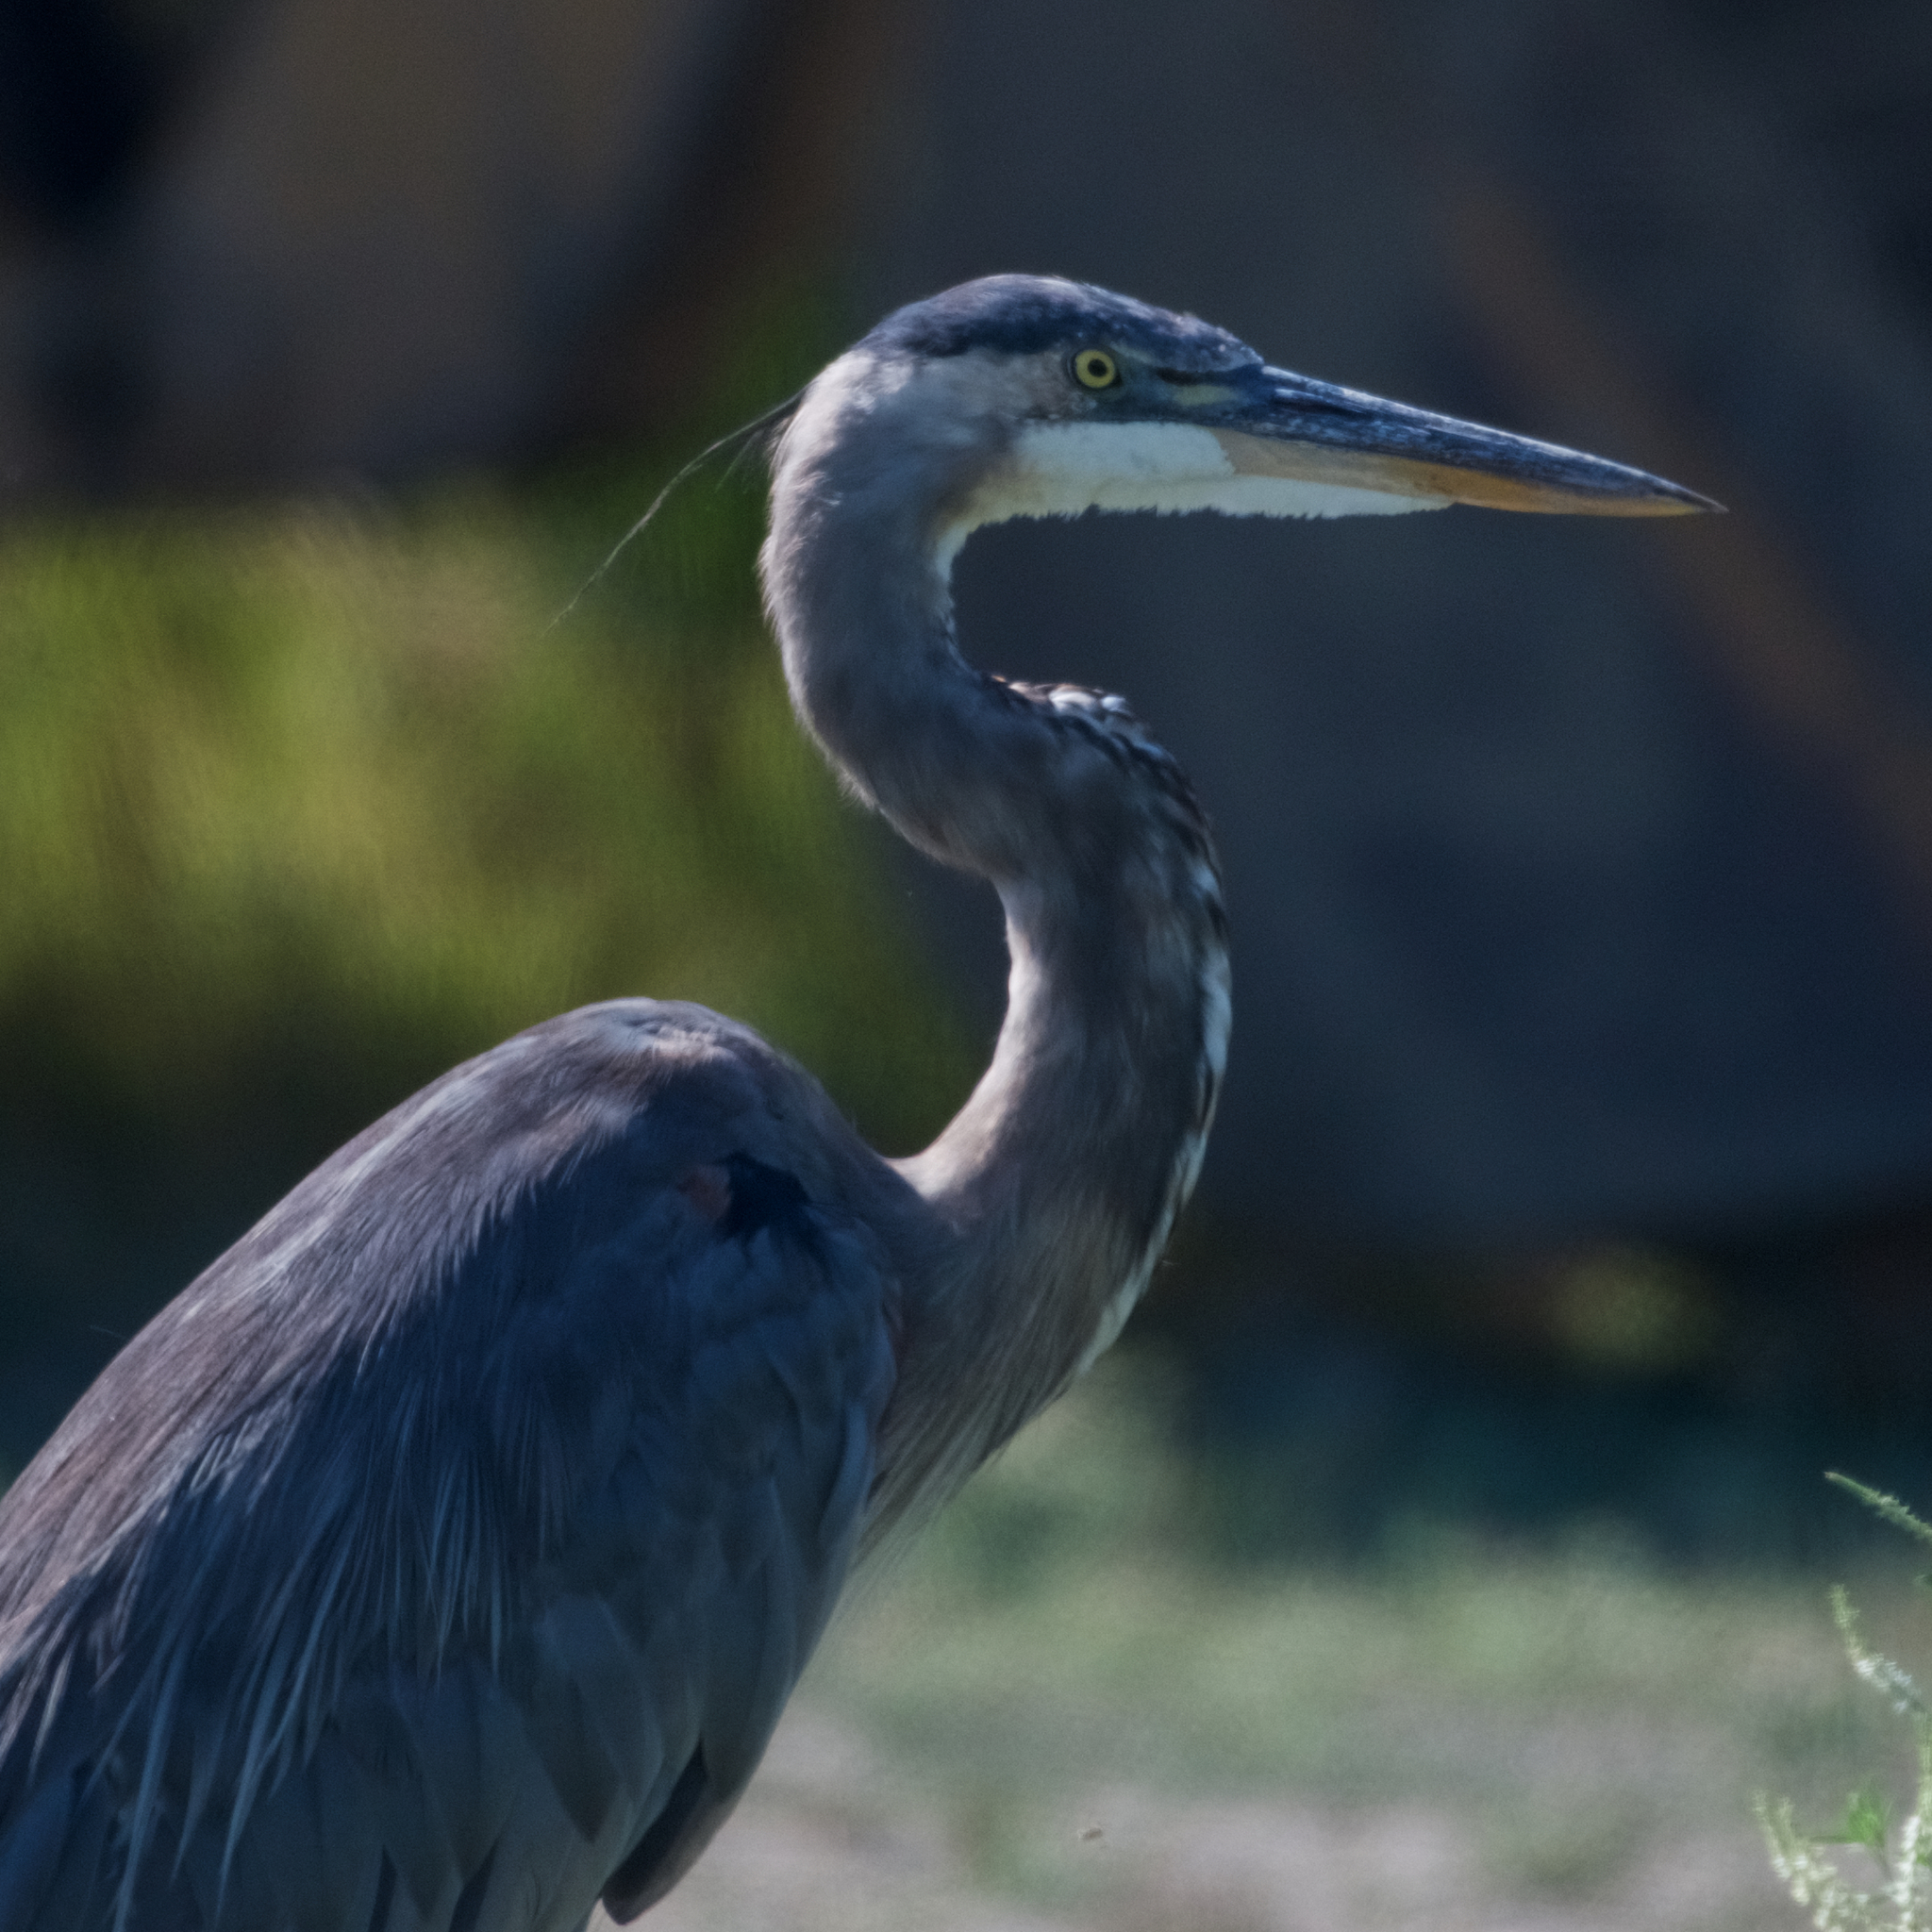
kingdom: Animalia
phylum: Chordata
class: Aves
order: Pelecaniformes
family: Ardeidae
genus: Ardea
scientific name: Ardea herodias
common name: Great blue heron
